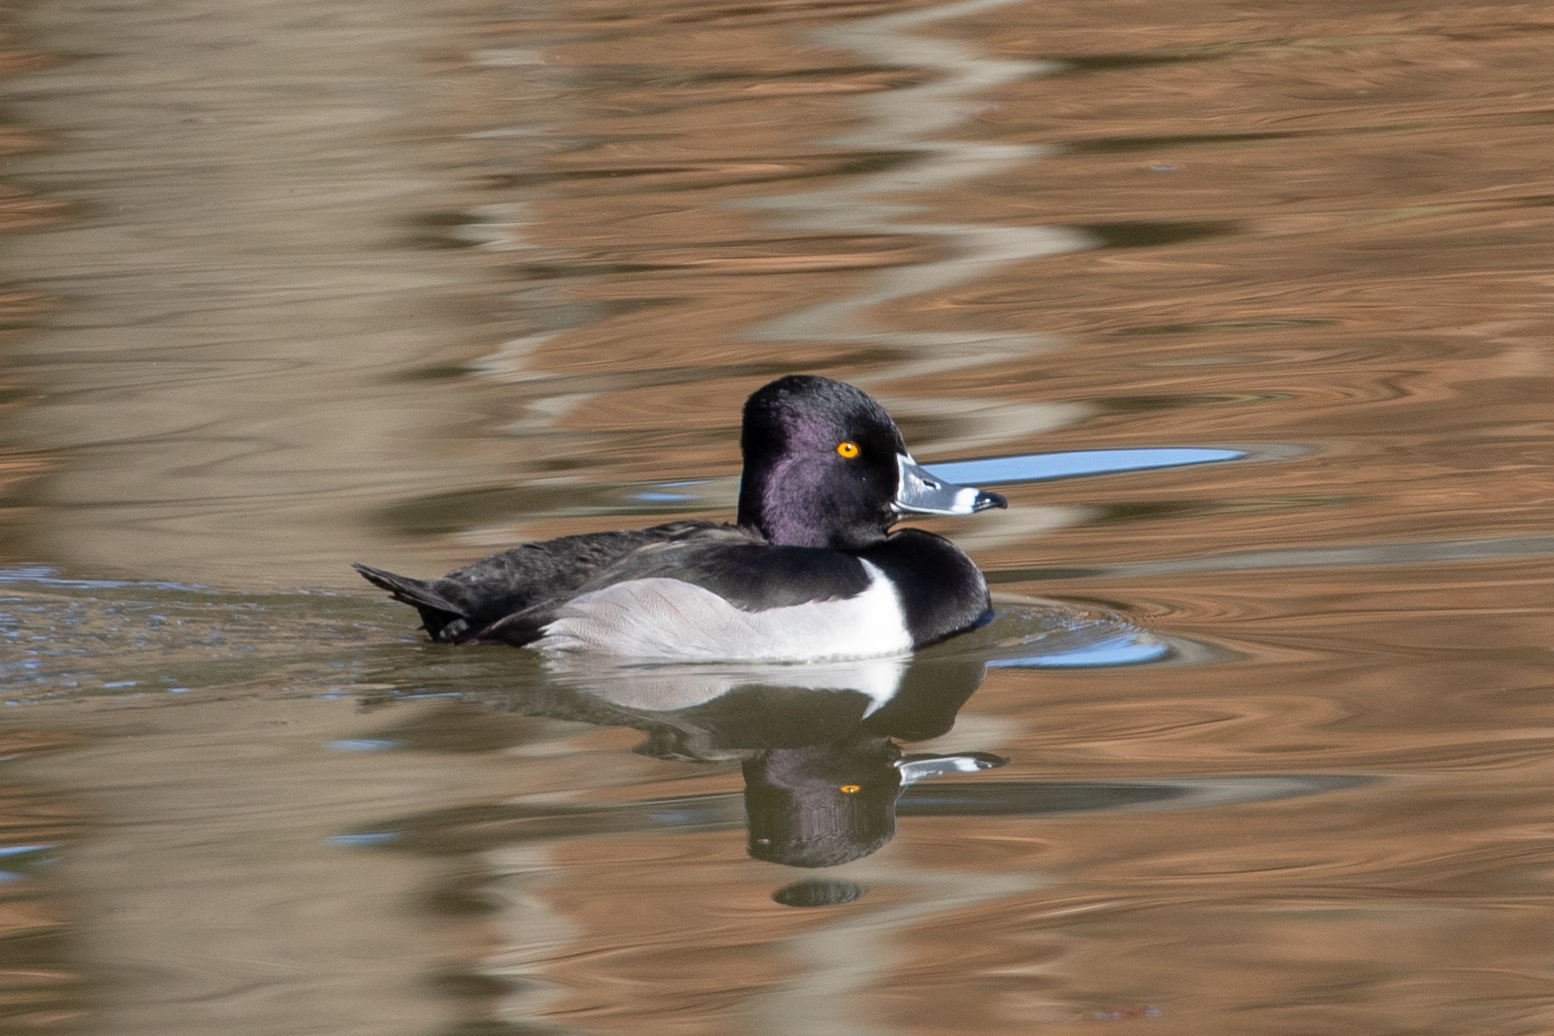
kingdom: Animalia
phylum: Chordata
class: Aves
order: Anseriformes
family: Anatidae
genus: Aythya
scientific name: Aythya collaris
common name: Ring-necked duck
